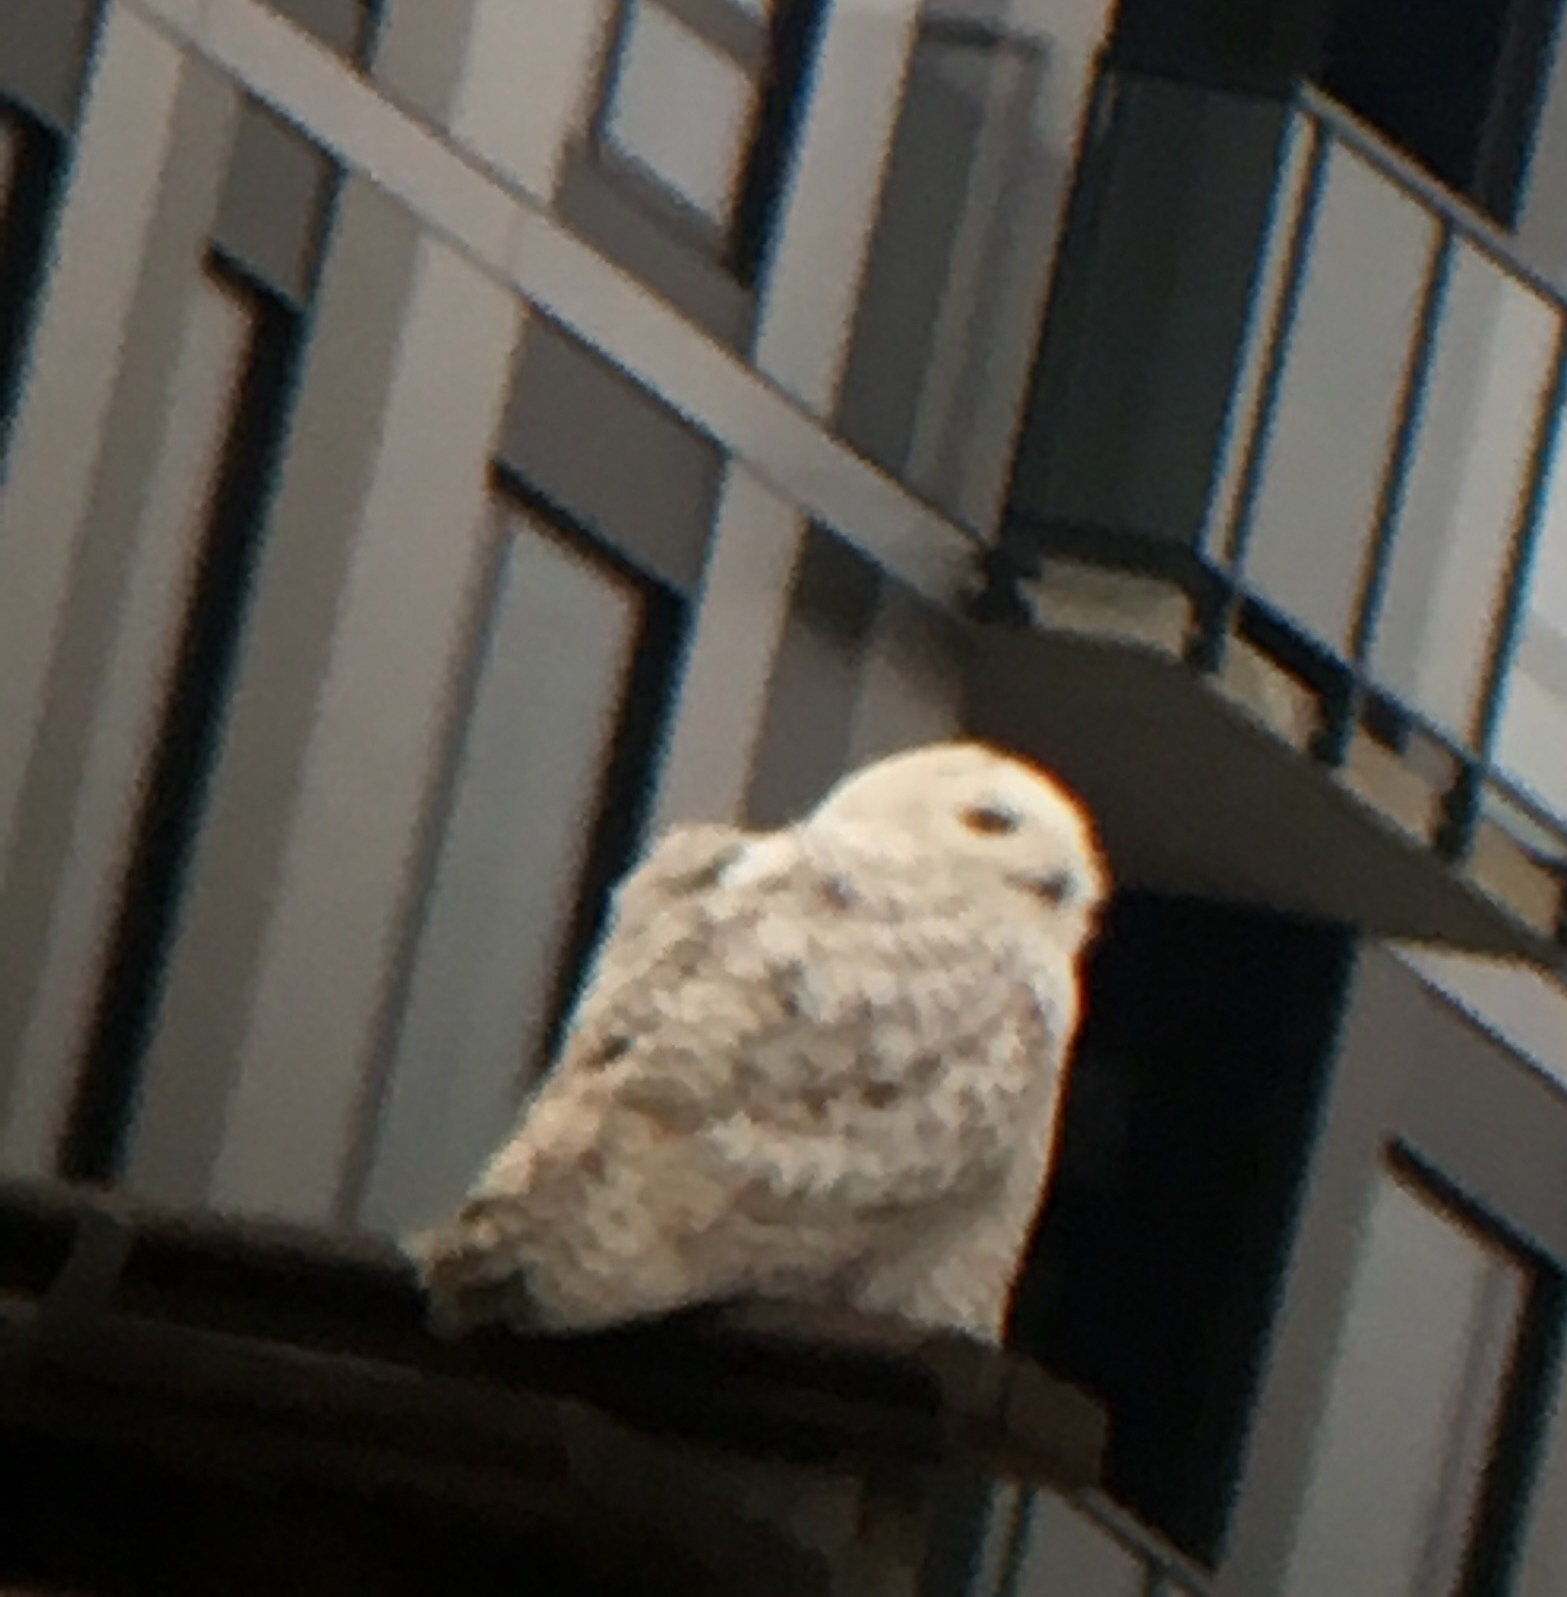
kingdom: Animalia
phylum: Chordata
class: Aves
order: Strigiformes
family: Strigidae
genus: Bubo
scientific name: Bubo scandiacus
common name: Snowy owl
